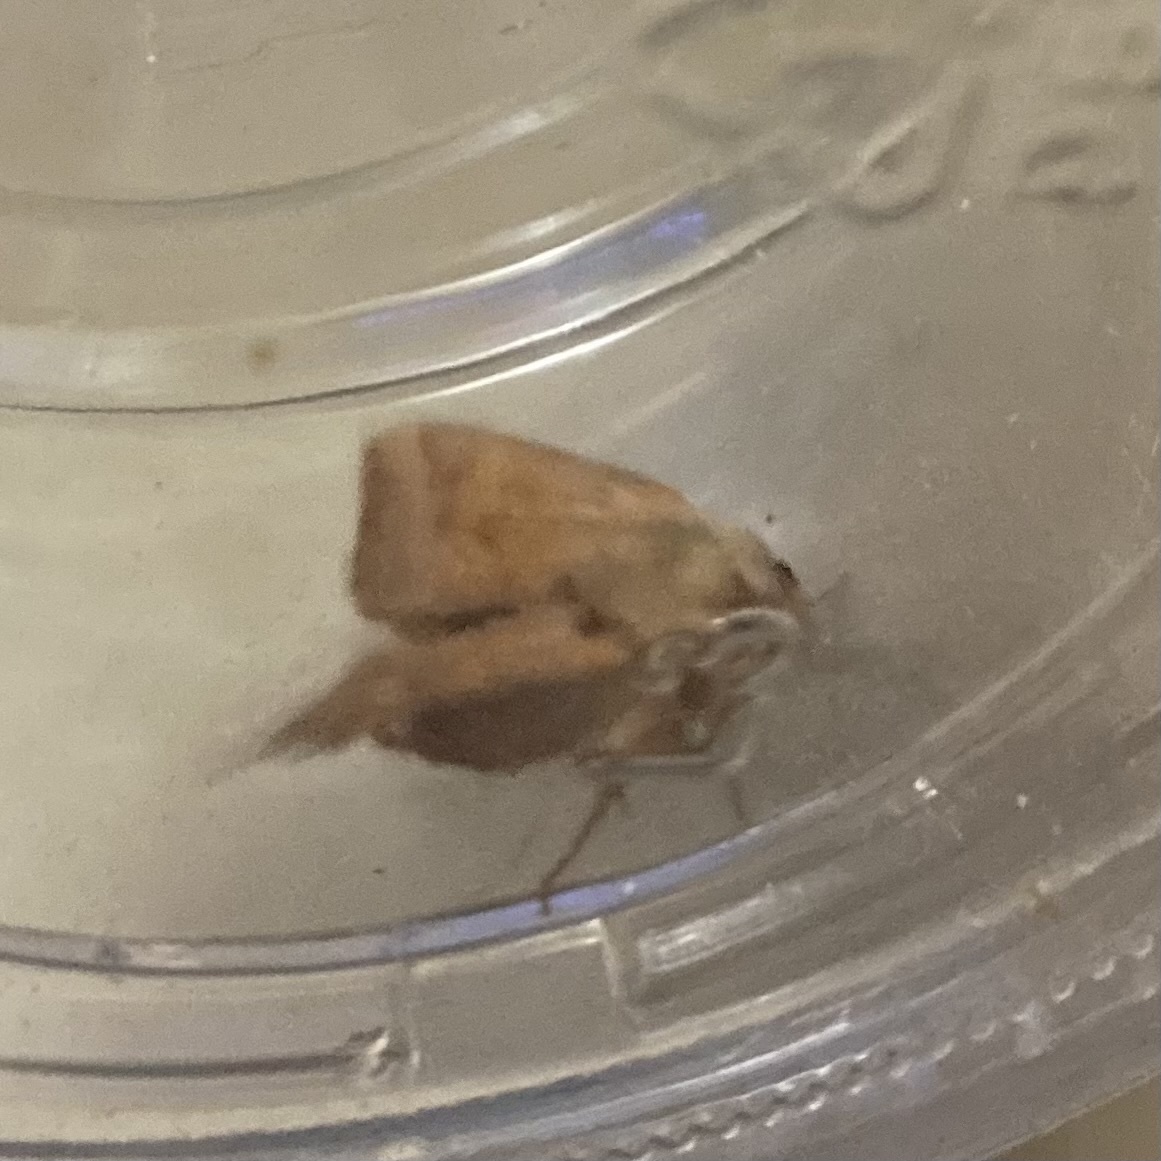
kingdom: Animalia
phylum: Arthropoda
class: Insecta
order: Lepidoptera
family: Noctuidae
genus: Amphipoea
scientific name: Amphipoea americana
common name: American ear moth
